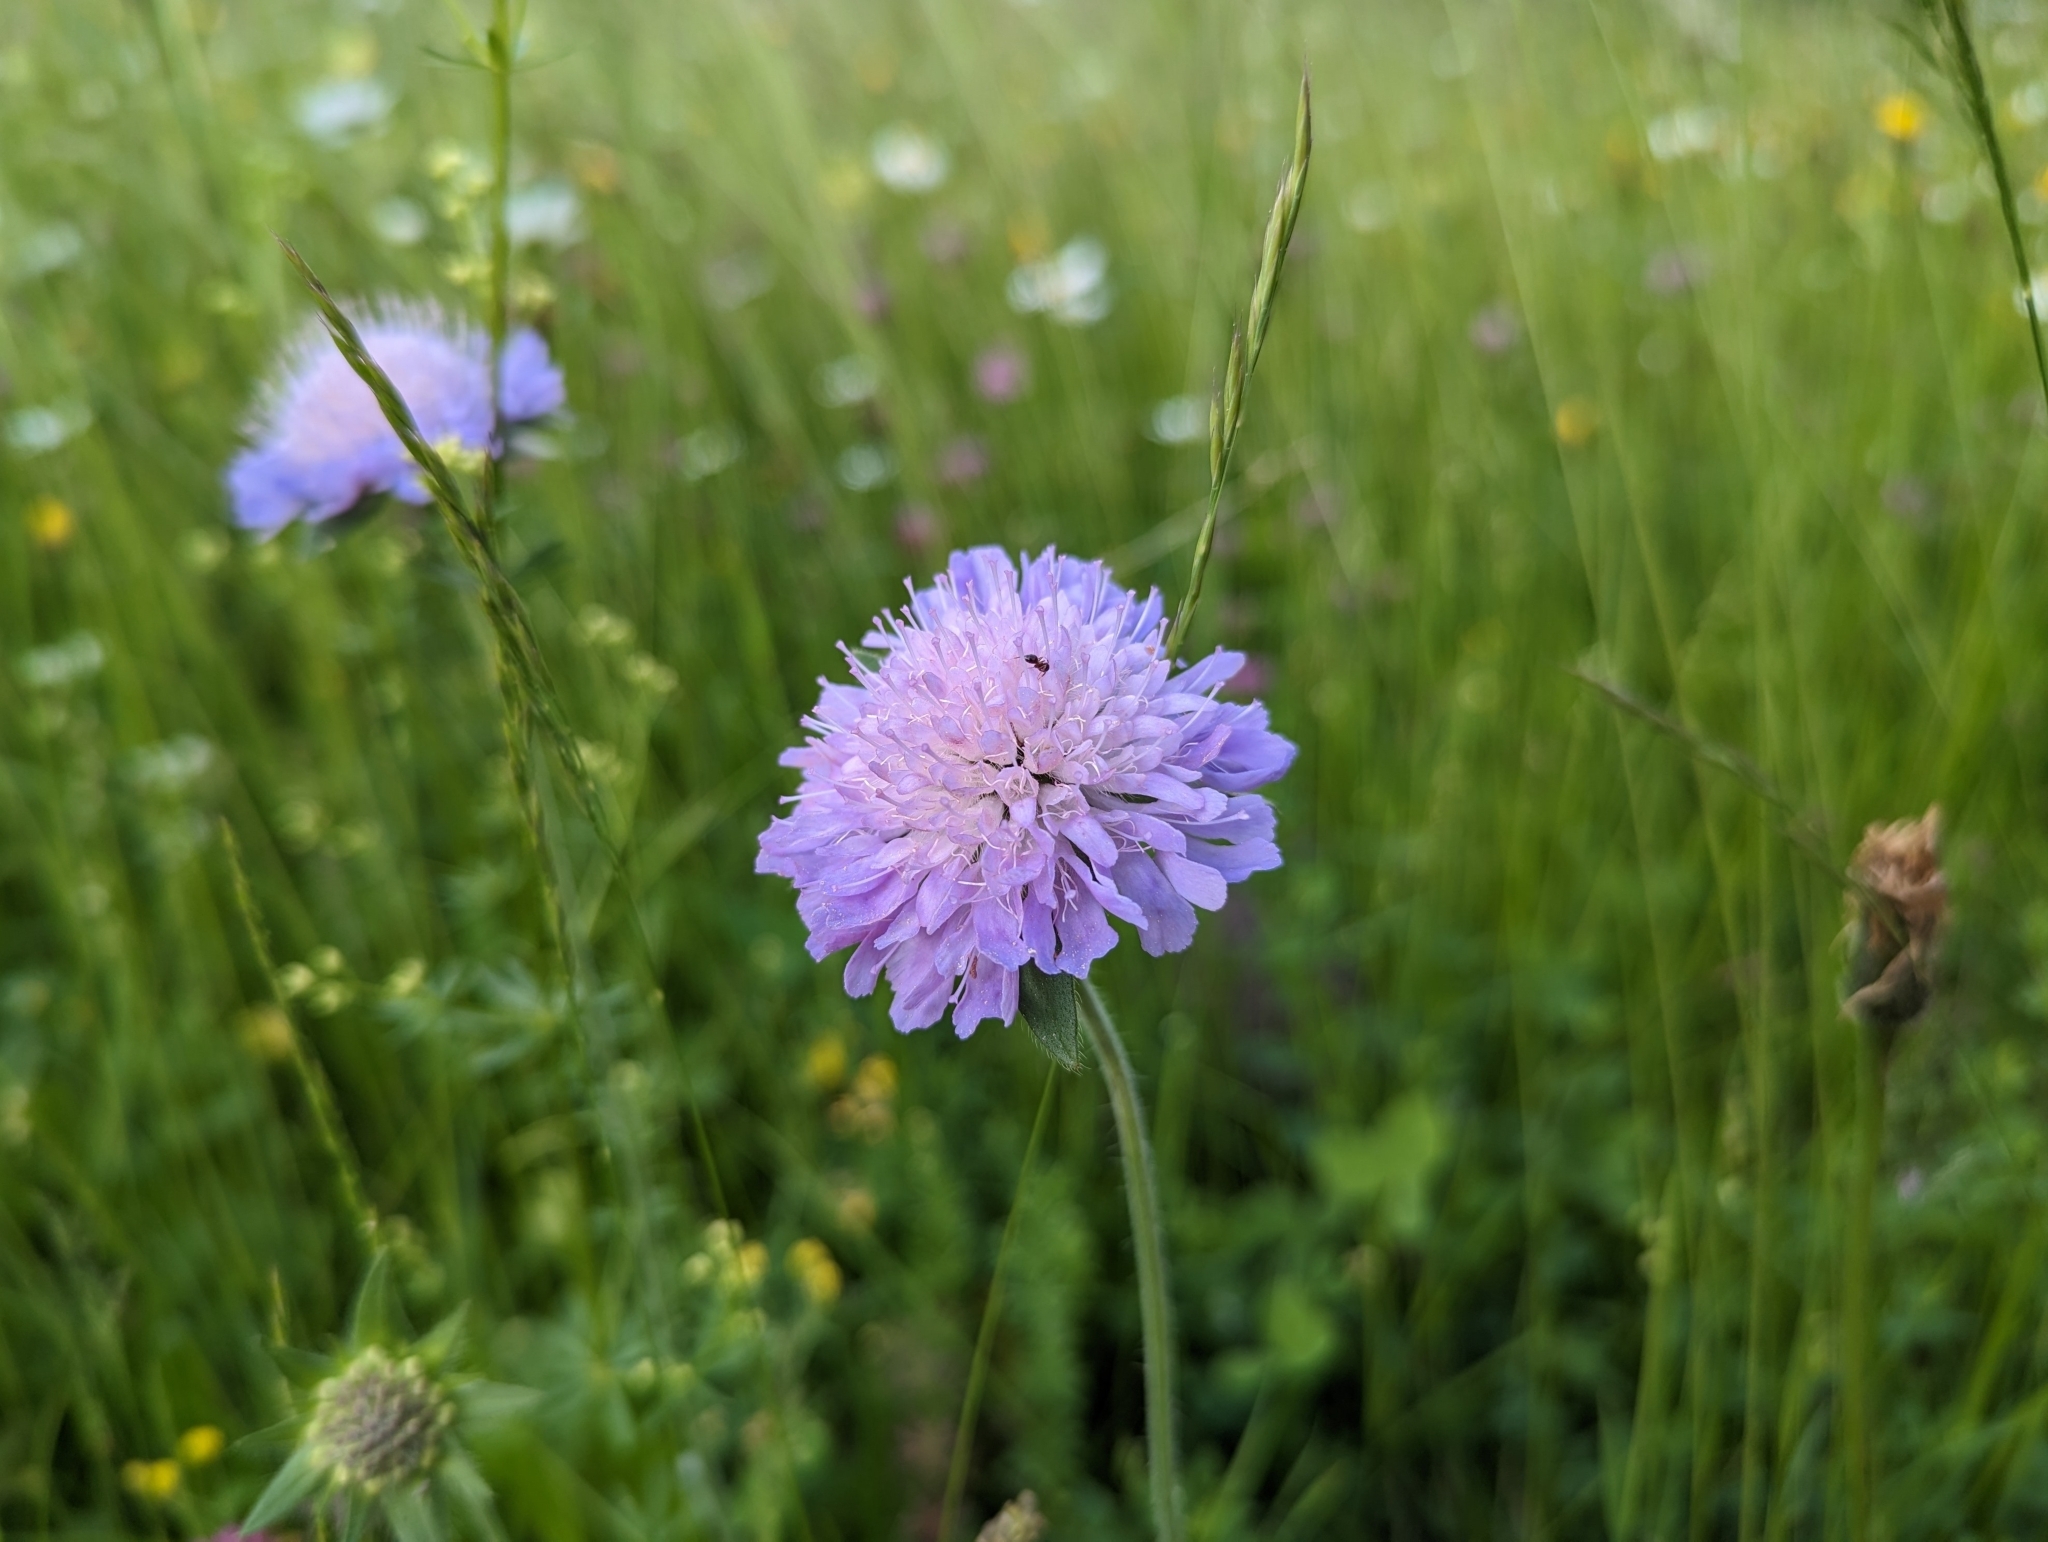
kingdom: Plantae
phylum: Tracheophyta
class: Magnoliopsida
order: Dipsacales
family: Caprifoliaceae
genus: Knautia
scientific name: Knautia arvensis
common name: Field scabiosa
